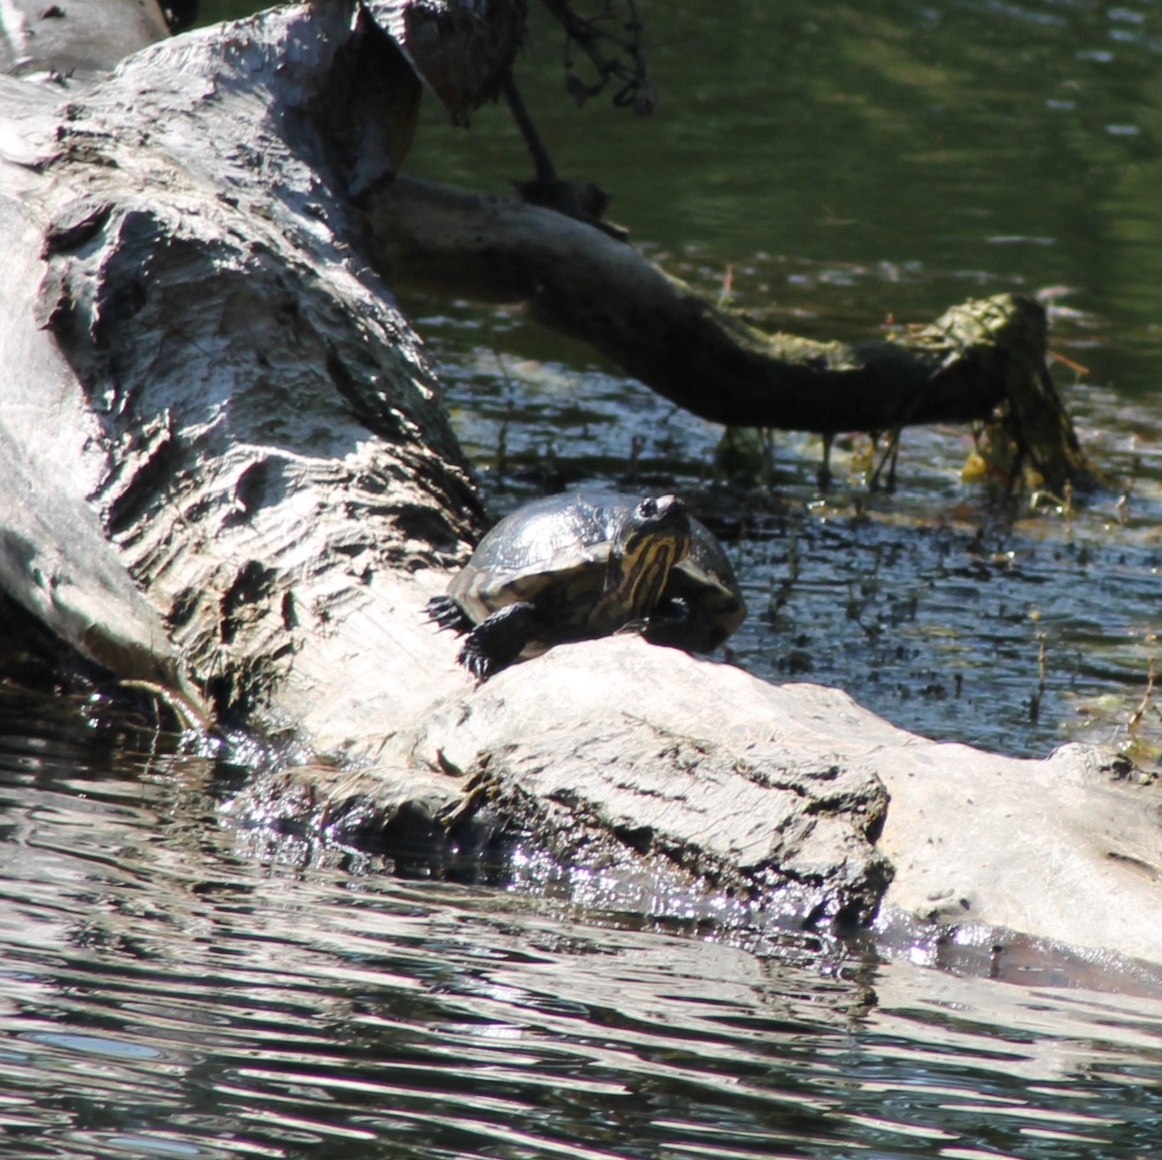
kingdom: Animalia
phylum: Chordata
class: Testudines
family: Emydidae
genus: Trachemys
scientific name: Trachemys scripta
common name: Slider
